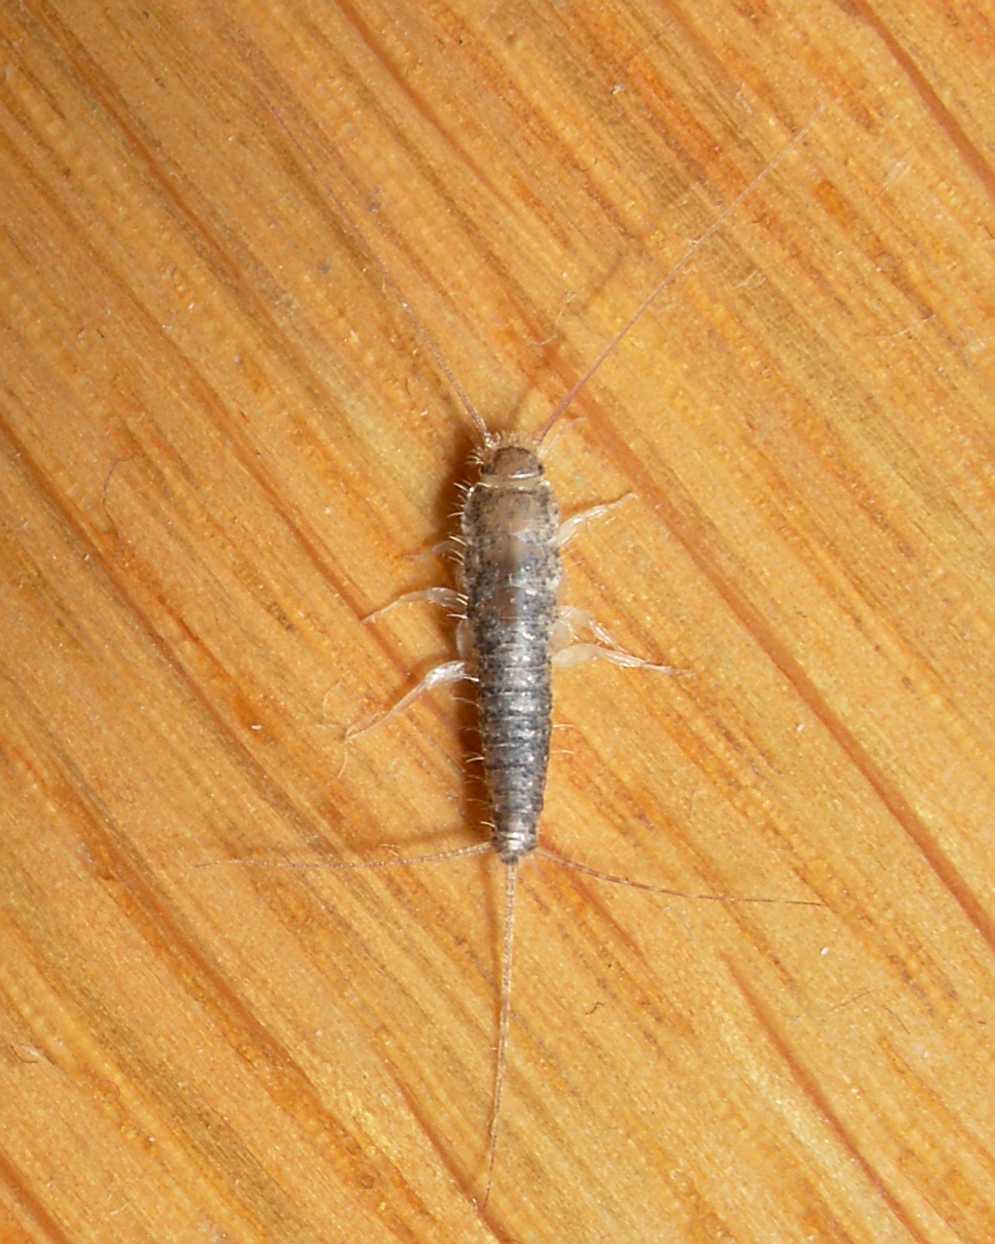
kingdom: Animalia
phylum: Arthropoda
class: Insecta
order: Zygentoma
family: Lepismatidae
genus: Ctenolepisma
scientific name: Ctenolepisma longicaudatum
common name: Silverfish
